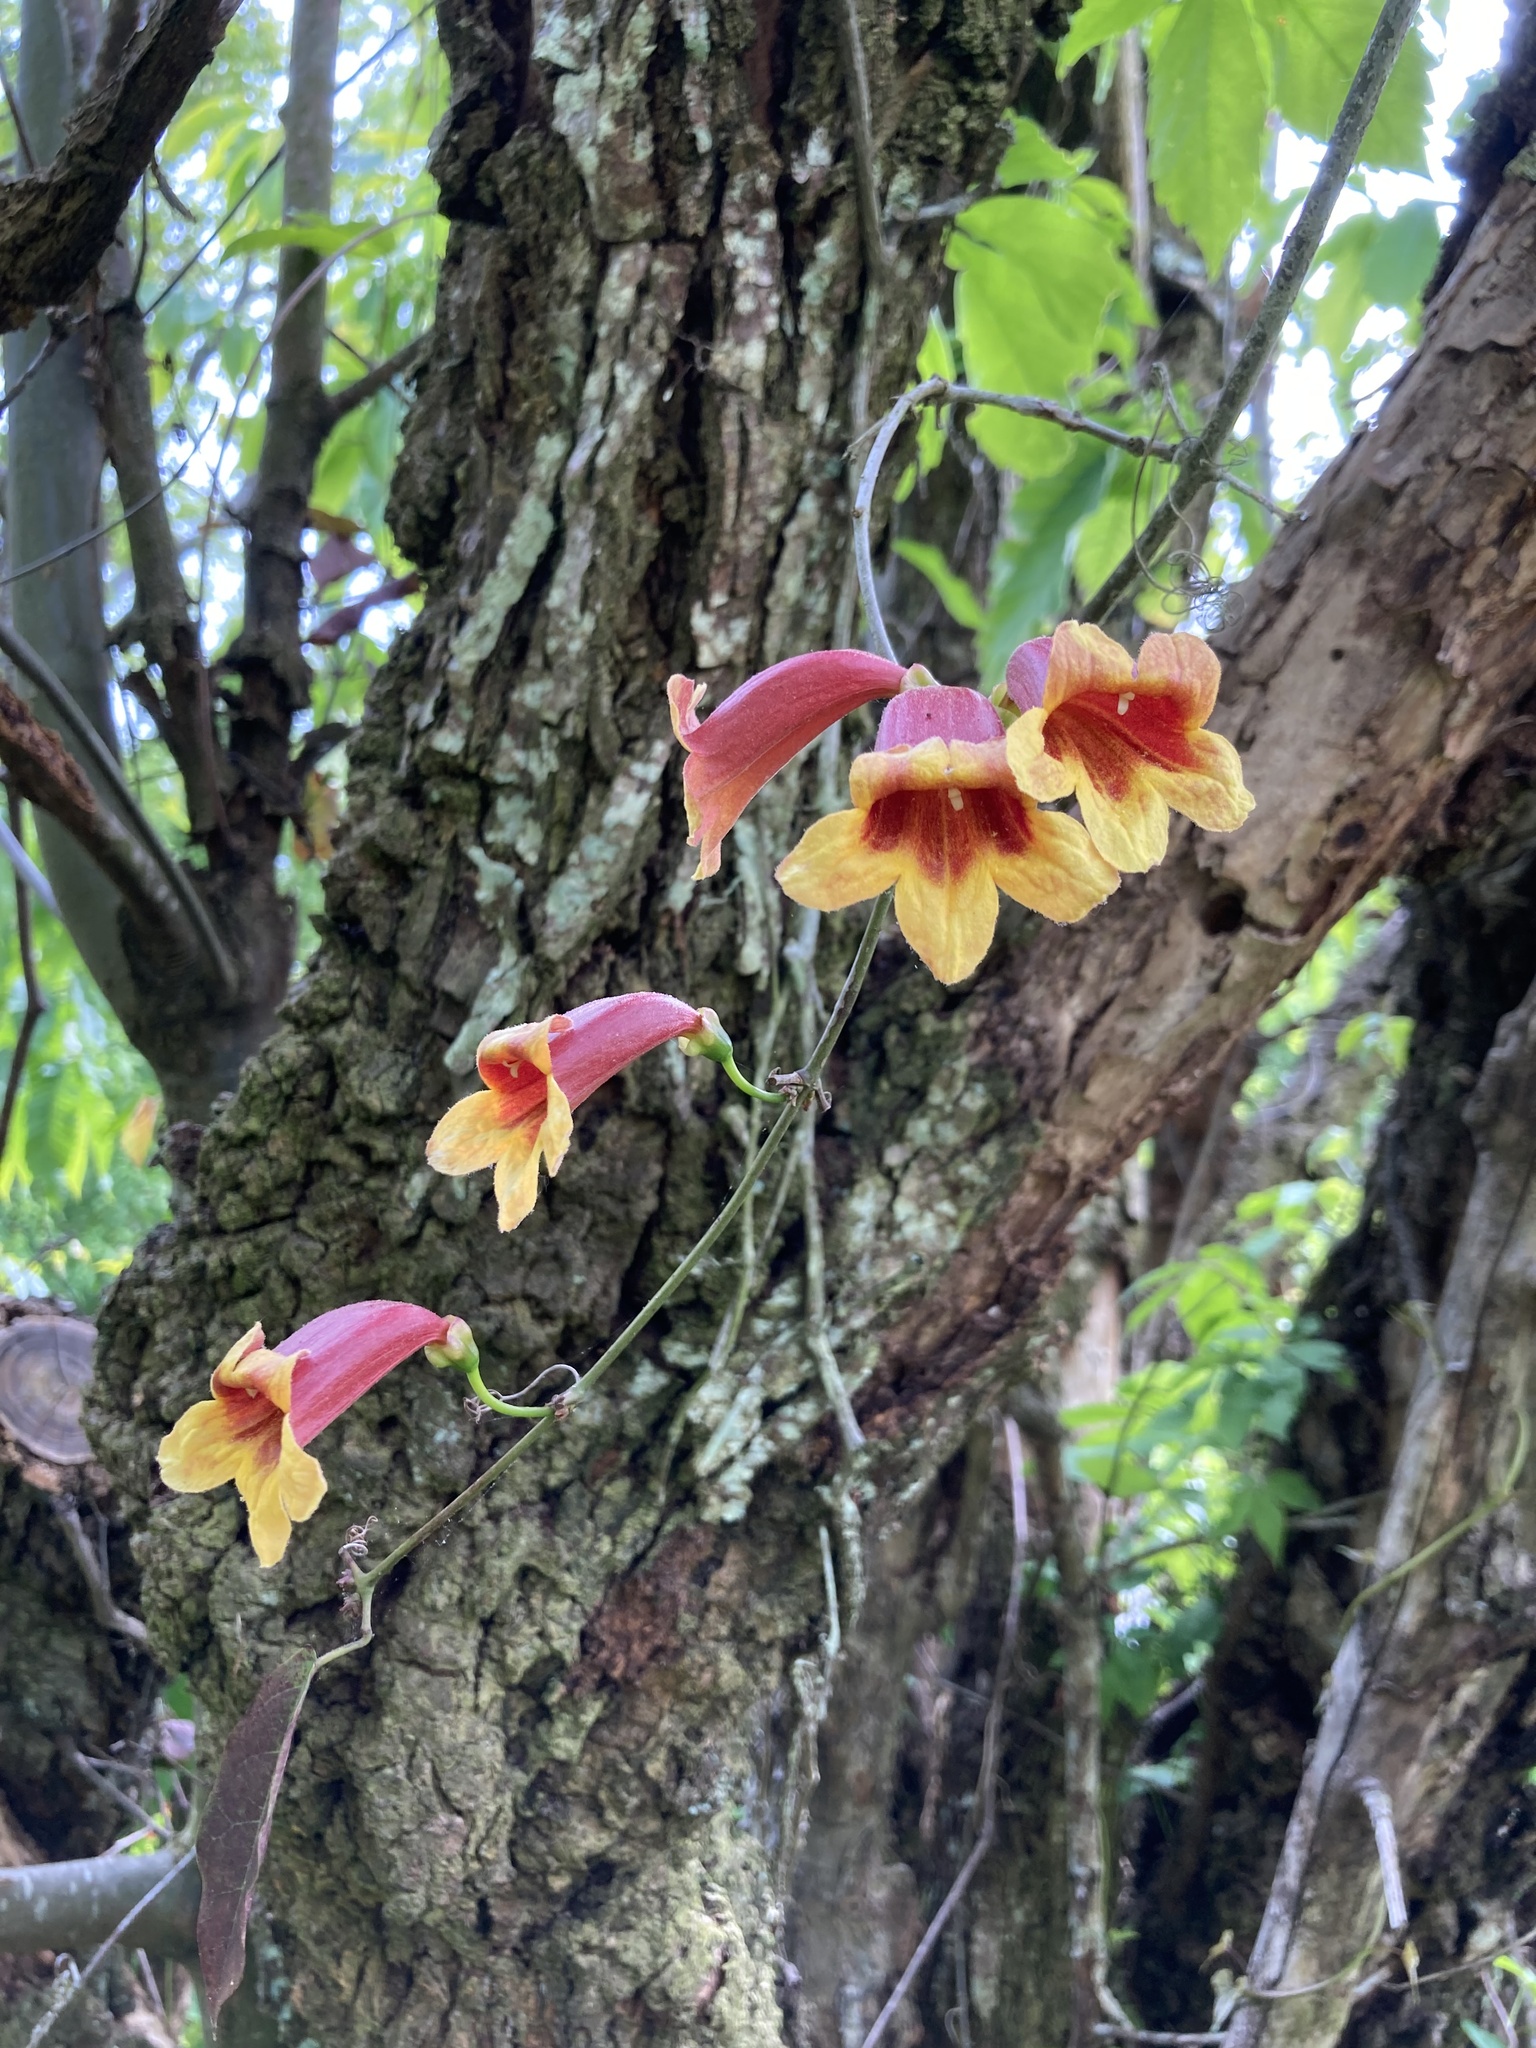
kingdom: Plantae
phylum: Tracheophyta
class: Magnoliopsida
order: Lamiales
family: Bignoniaceae
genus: Bignonia
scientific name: Bignonia capreolata
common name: Crossvine
